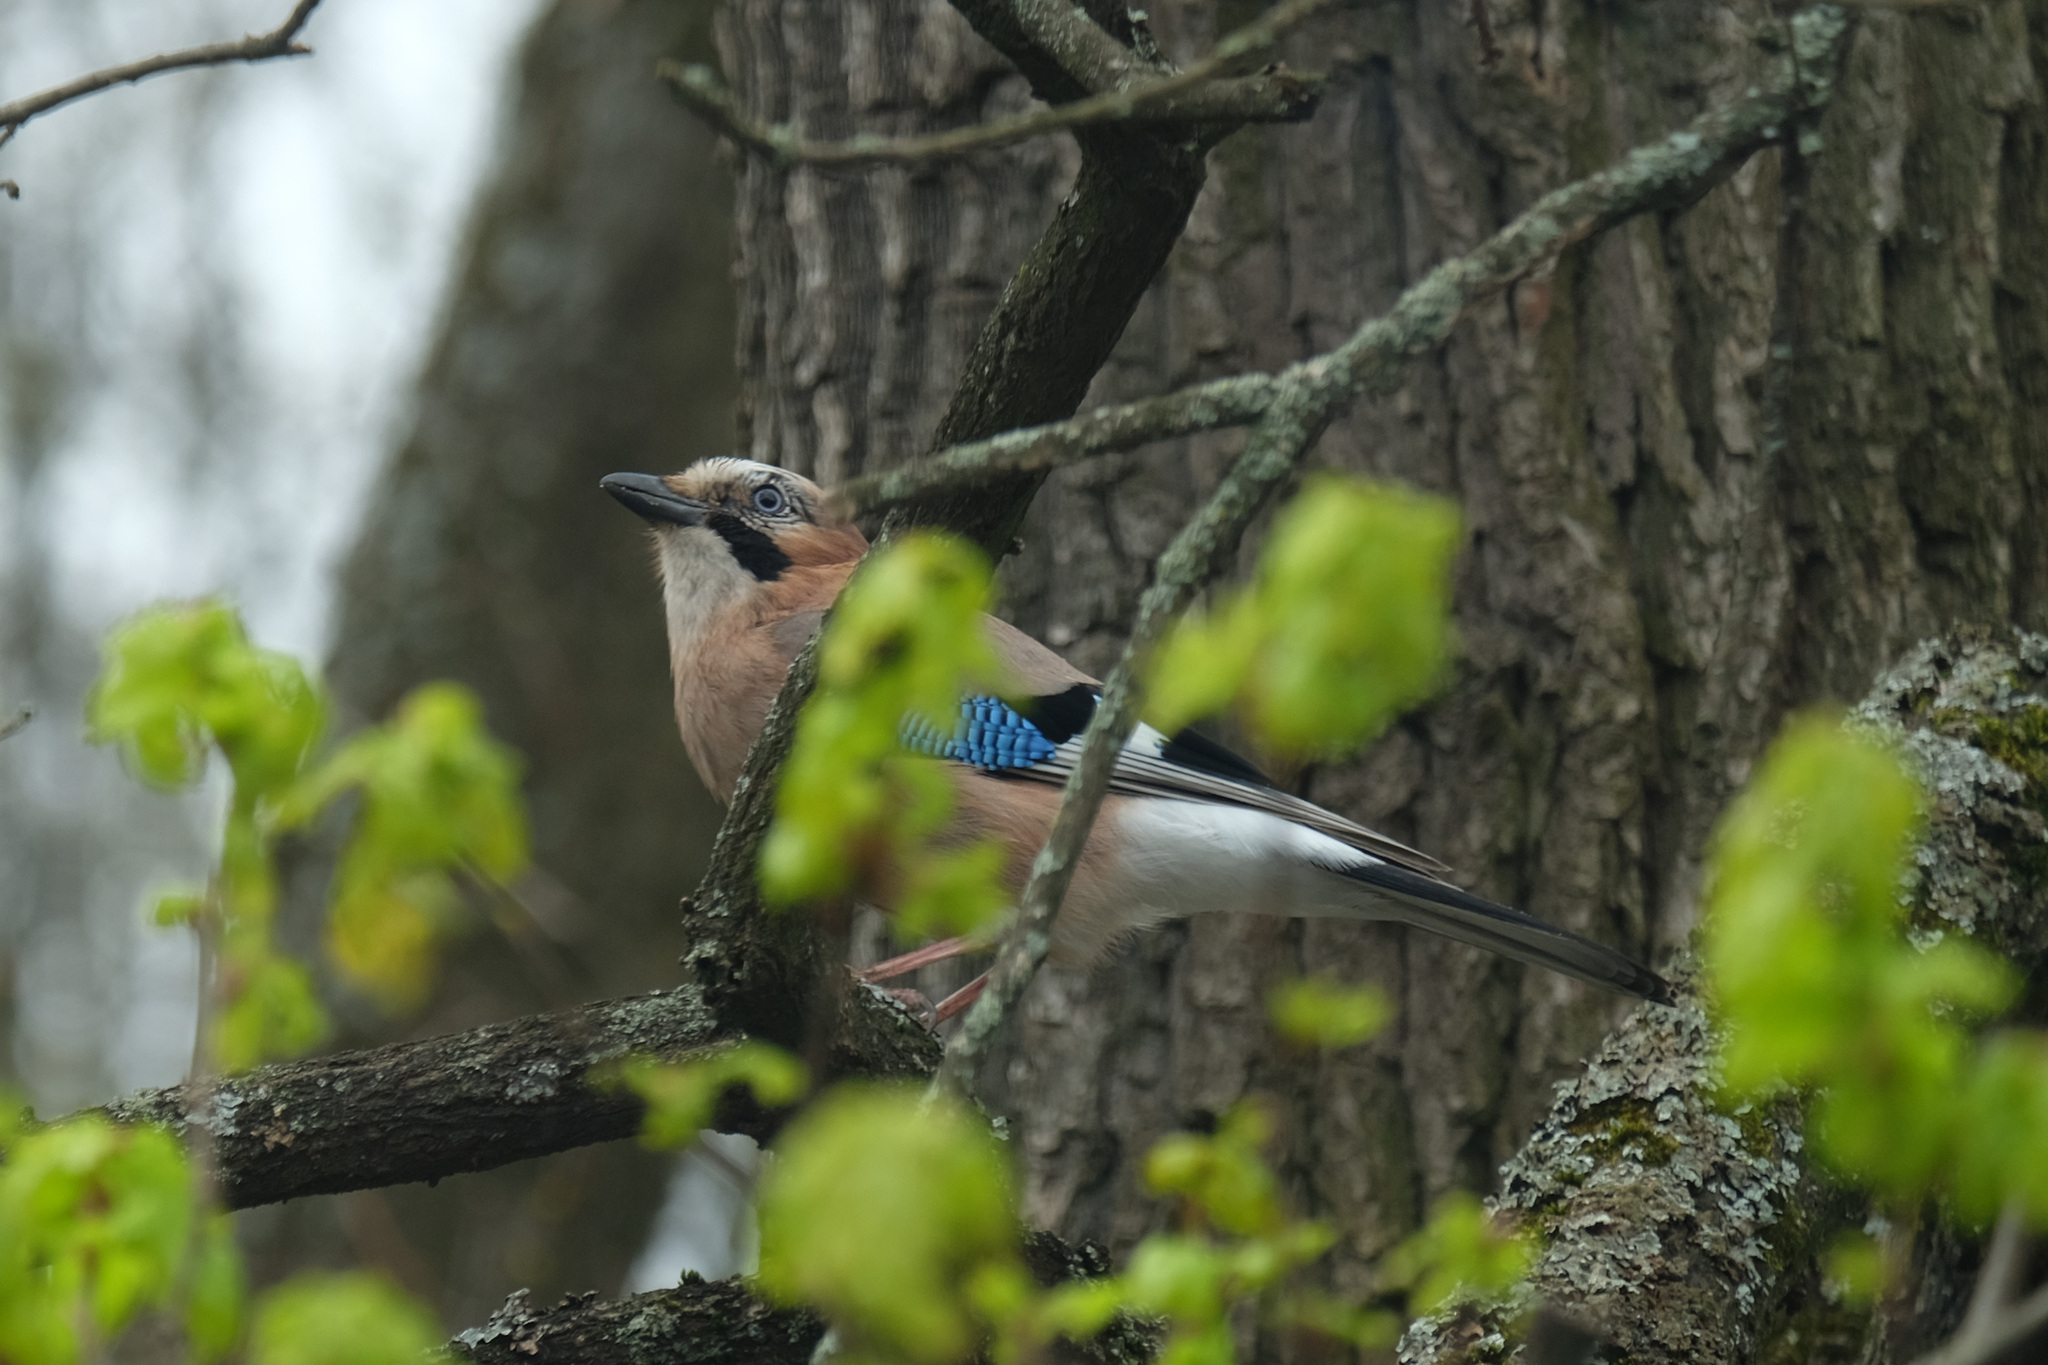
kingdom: Animalia
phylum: Chordata
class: Aves
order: Passeriformes
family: Corvidae
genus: Garrulus
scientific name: Garrulus glandarius
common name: Eurasian jay
